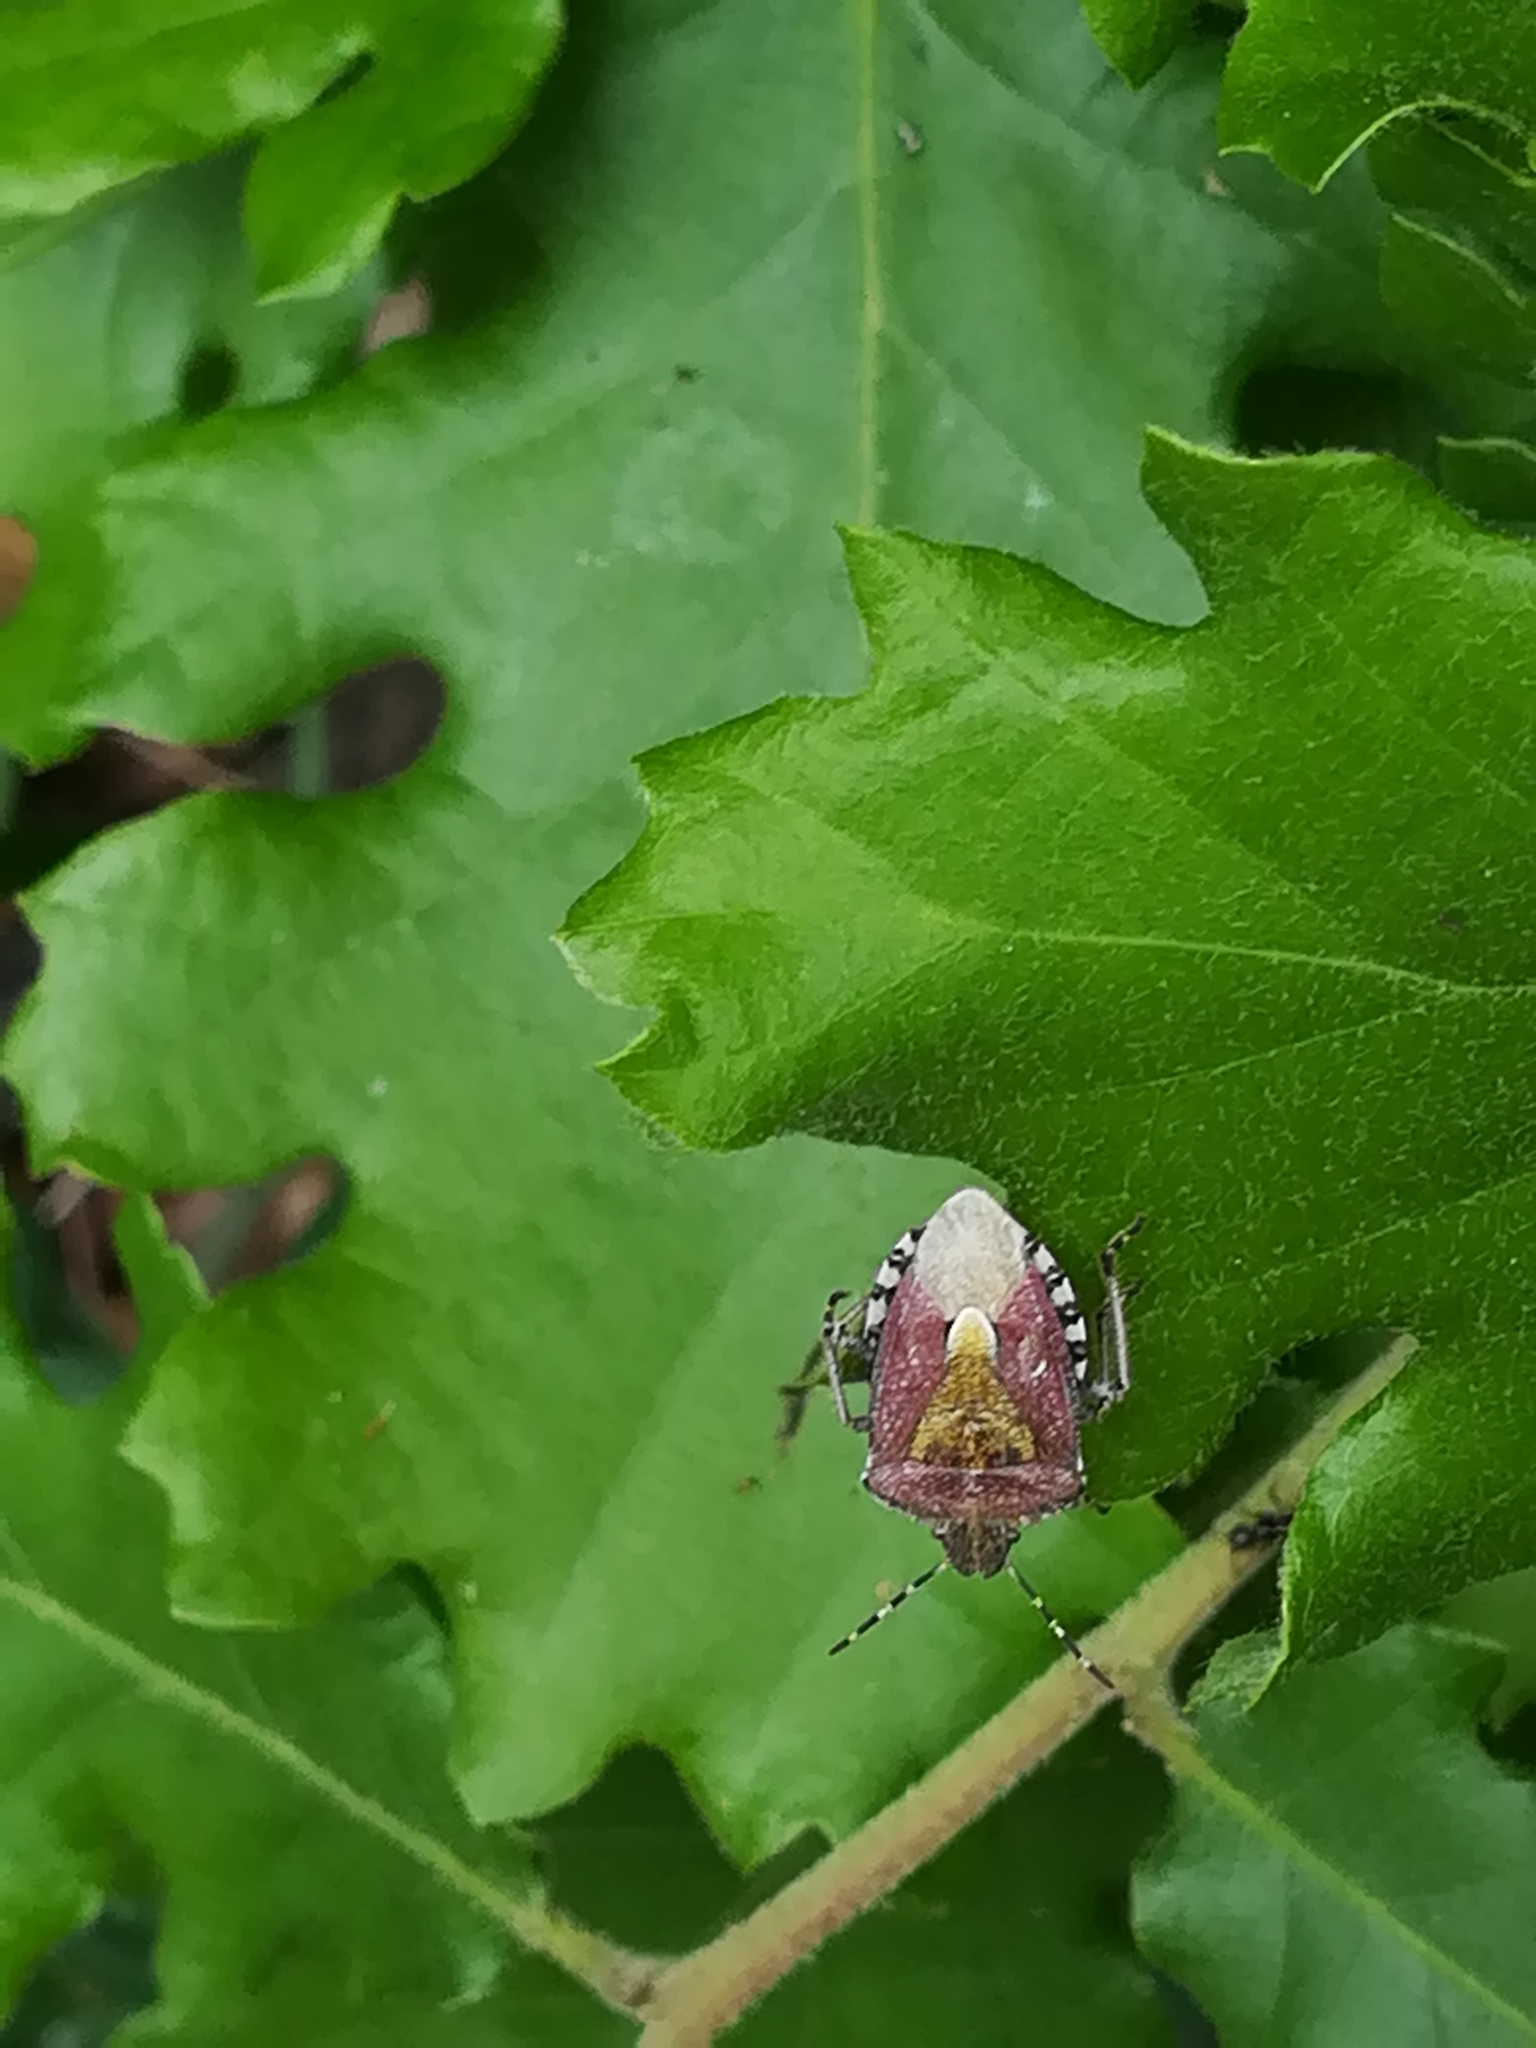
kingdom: Animalia
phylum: Arthropoda
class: Insecta
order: Hemiptera
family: Pentatomidae
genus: Dolycoris
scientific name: Dolycoris baccarum
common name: Sloe bug
